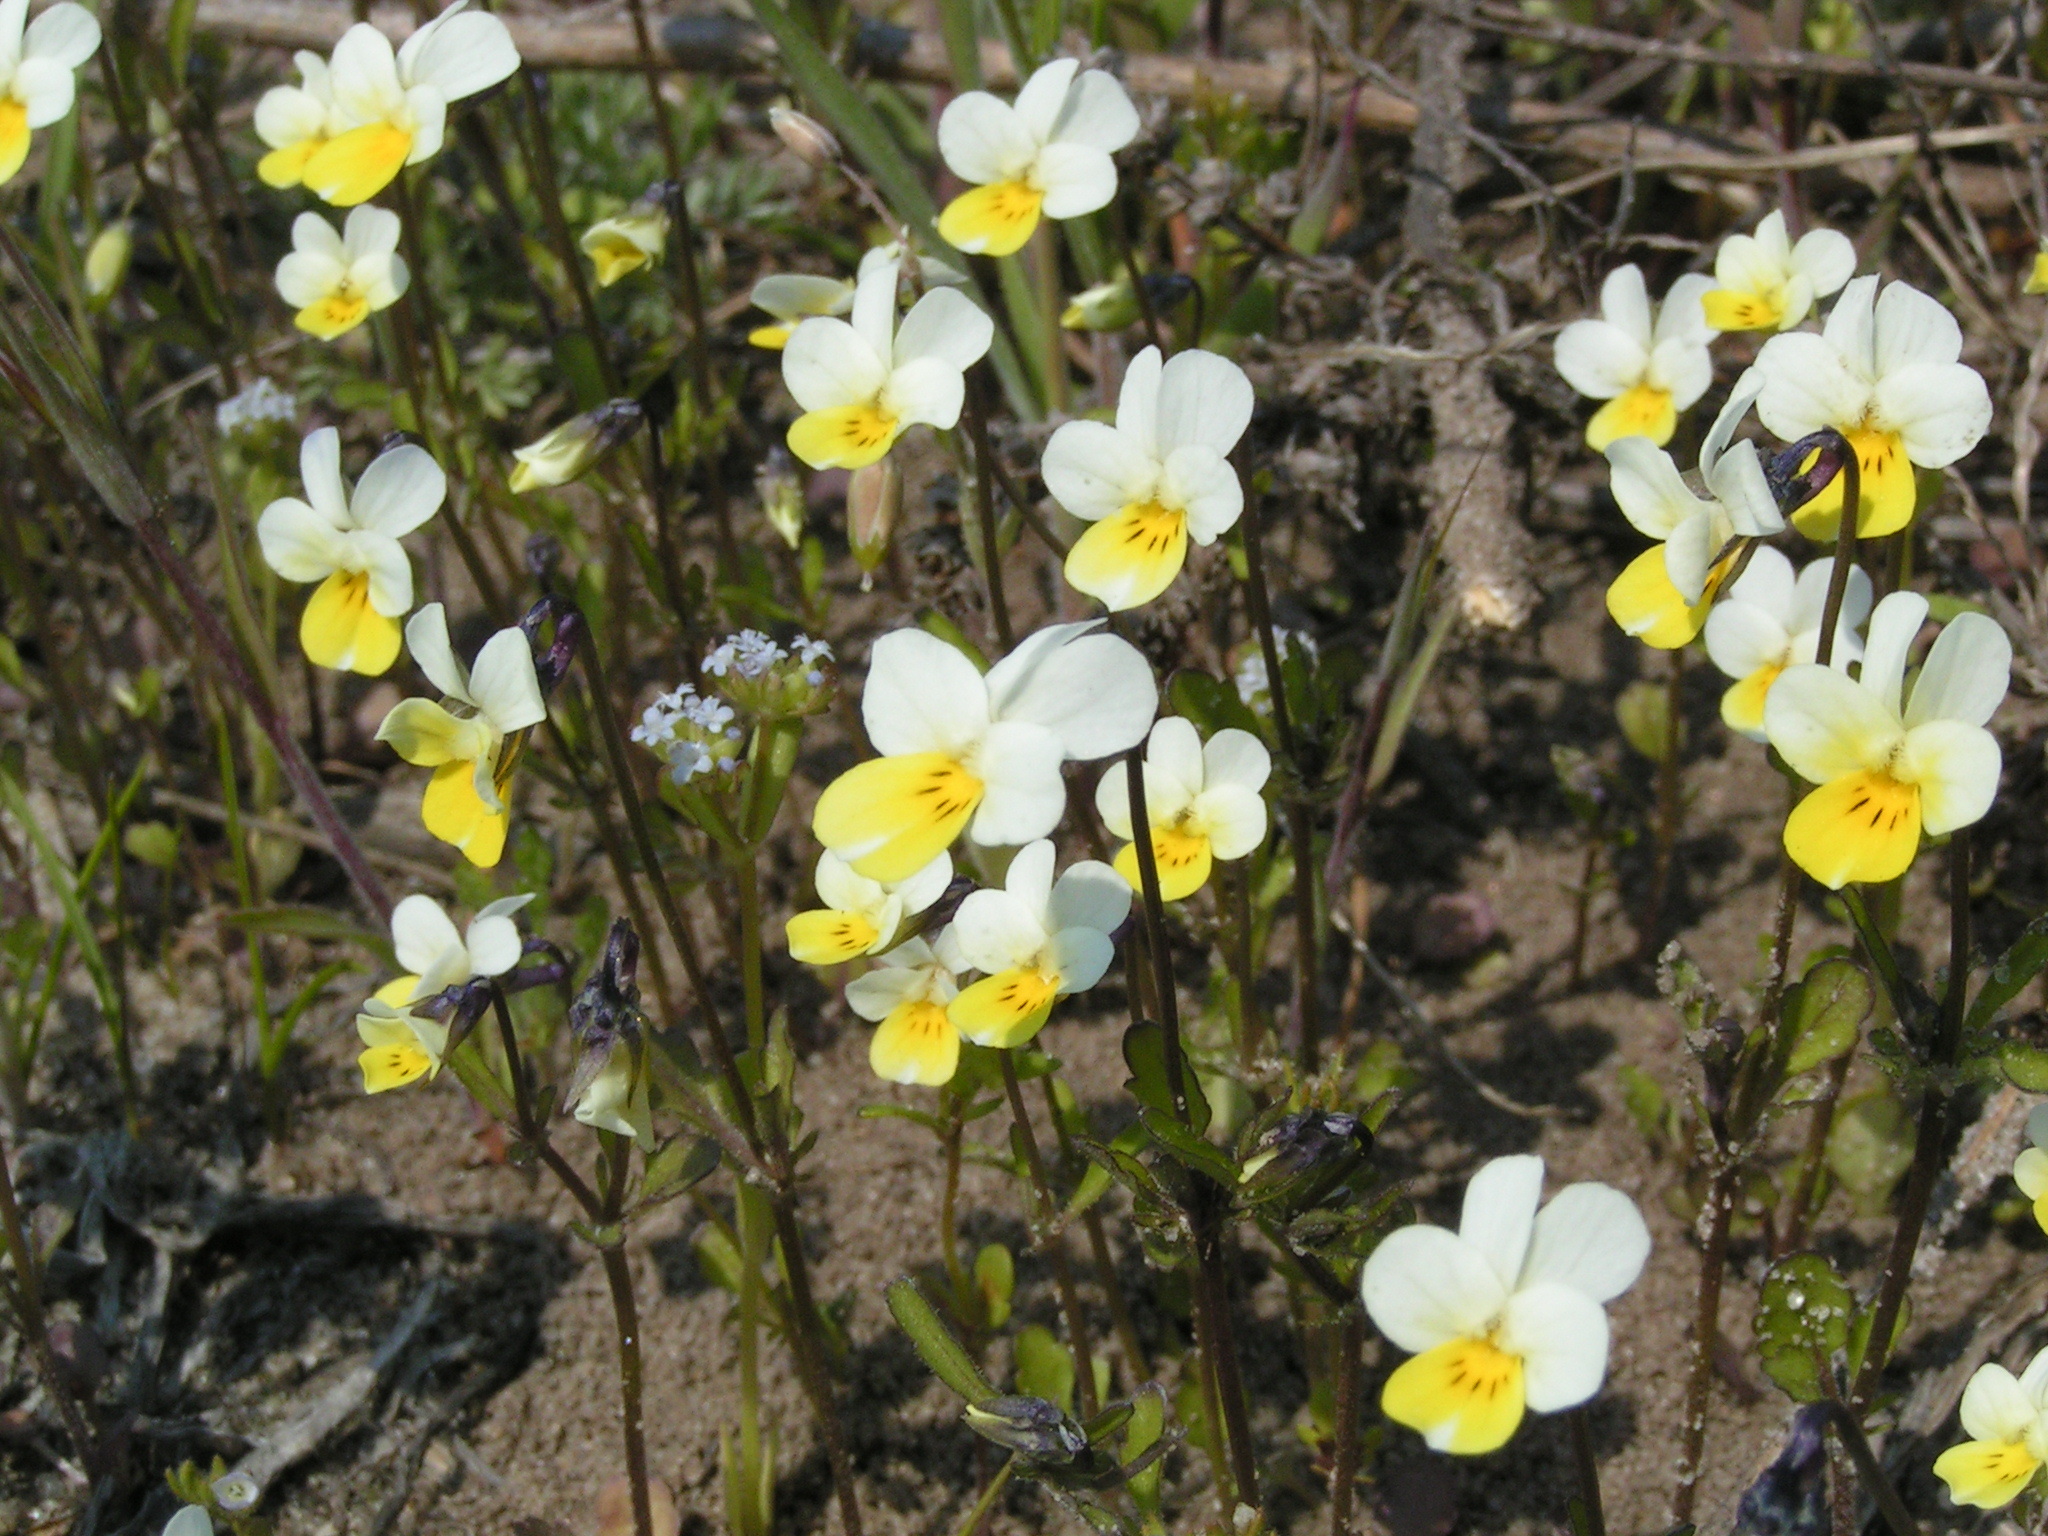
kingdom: Plantae
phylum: Tracheophyta
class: Magnoliopsida
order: Malpighiales
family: Violaceae
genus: Viola
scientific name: Viola hymettia
